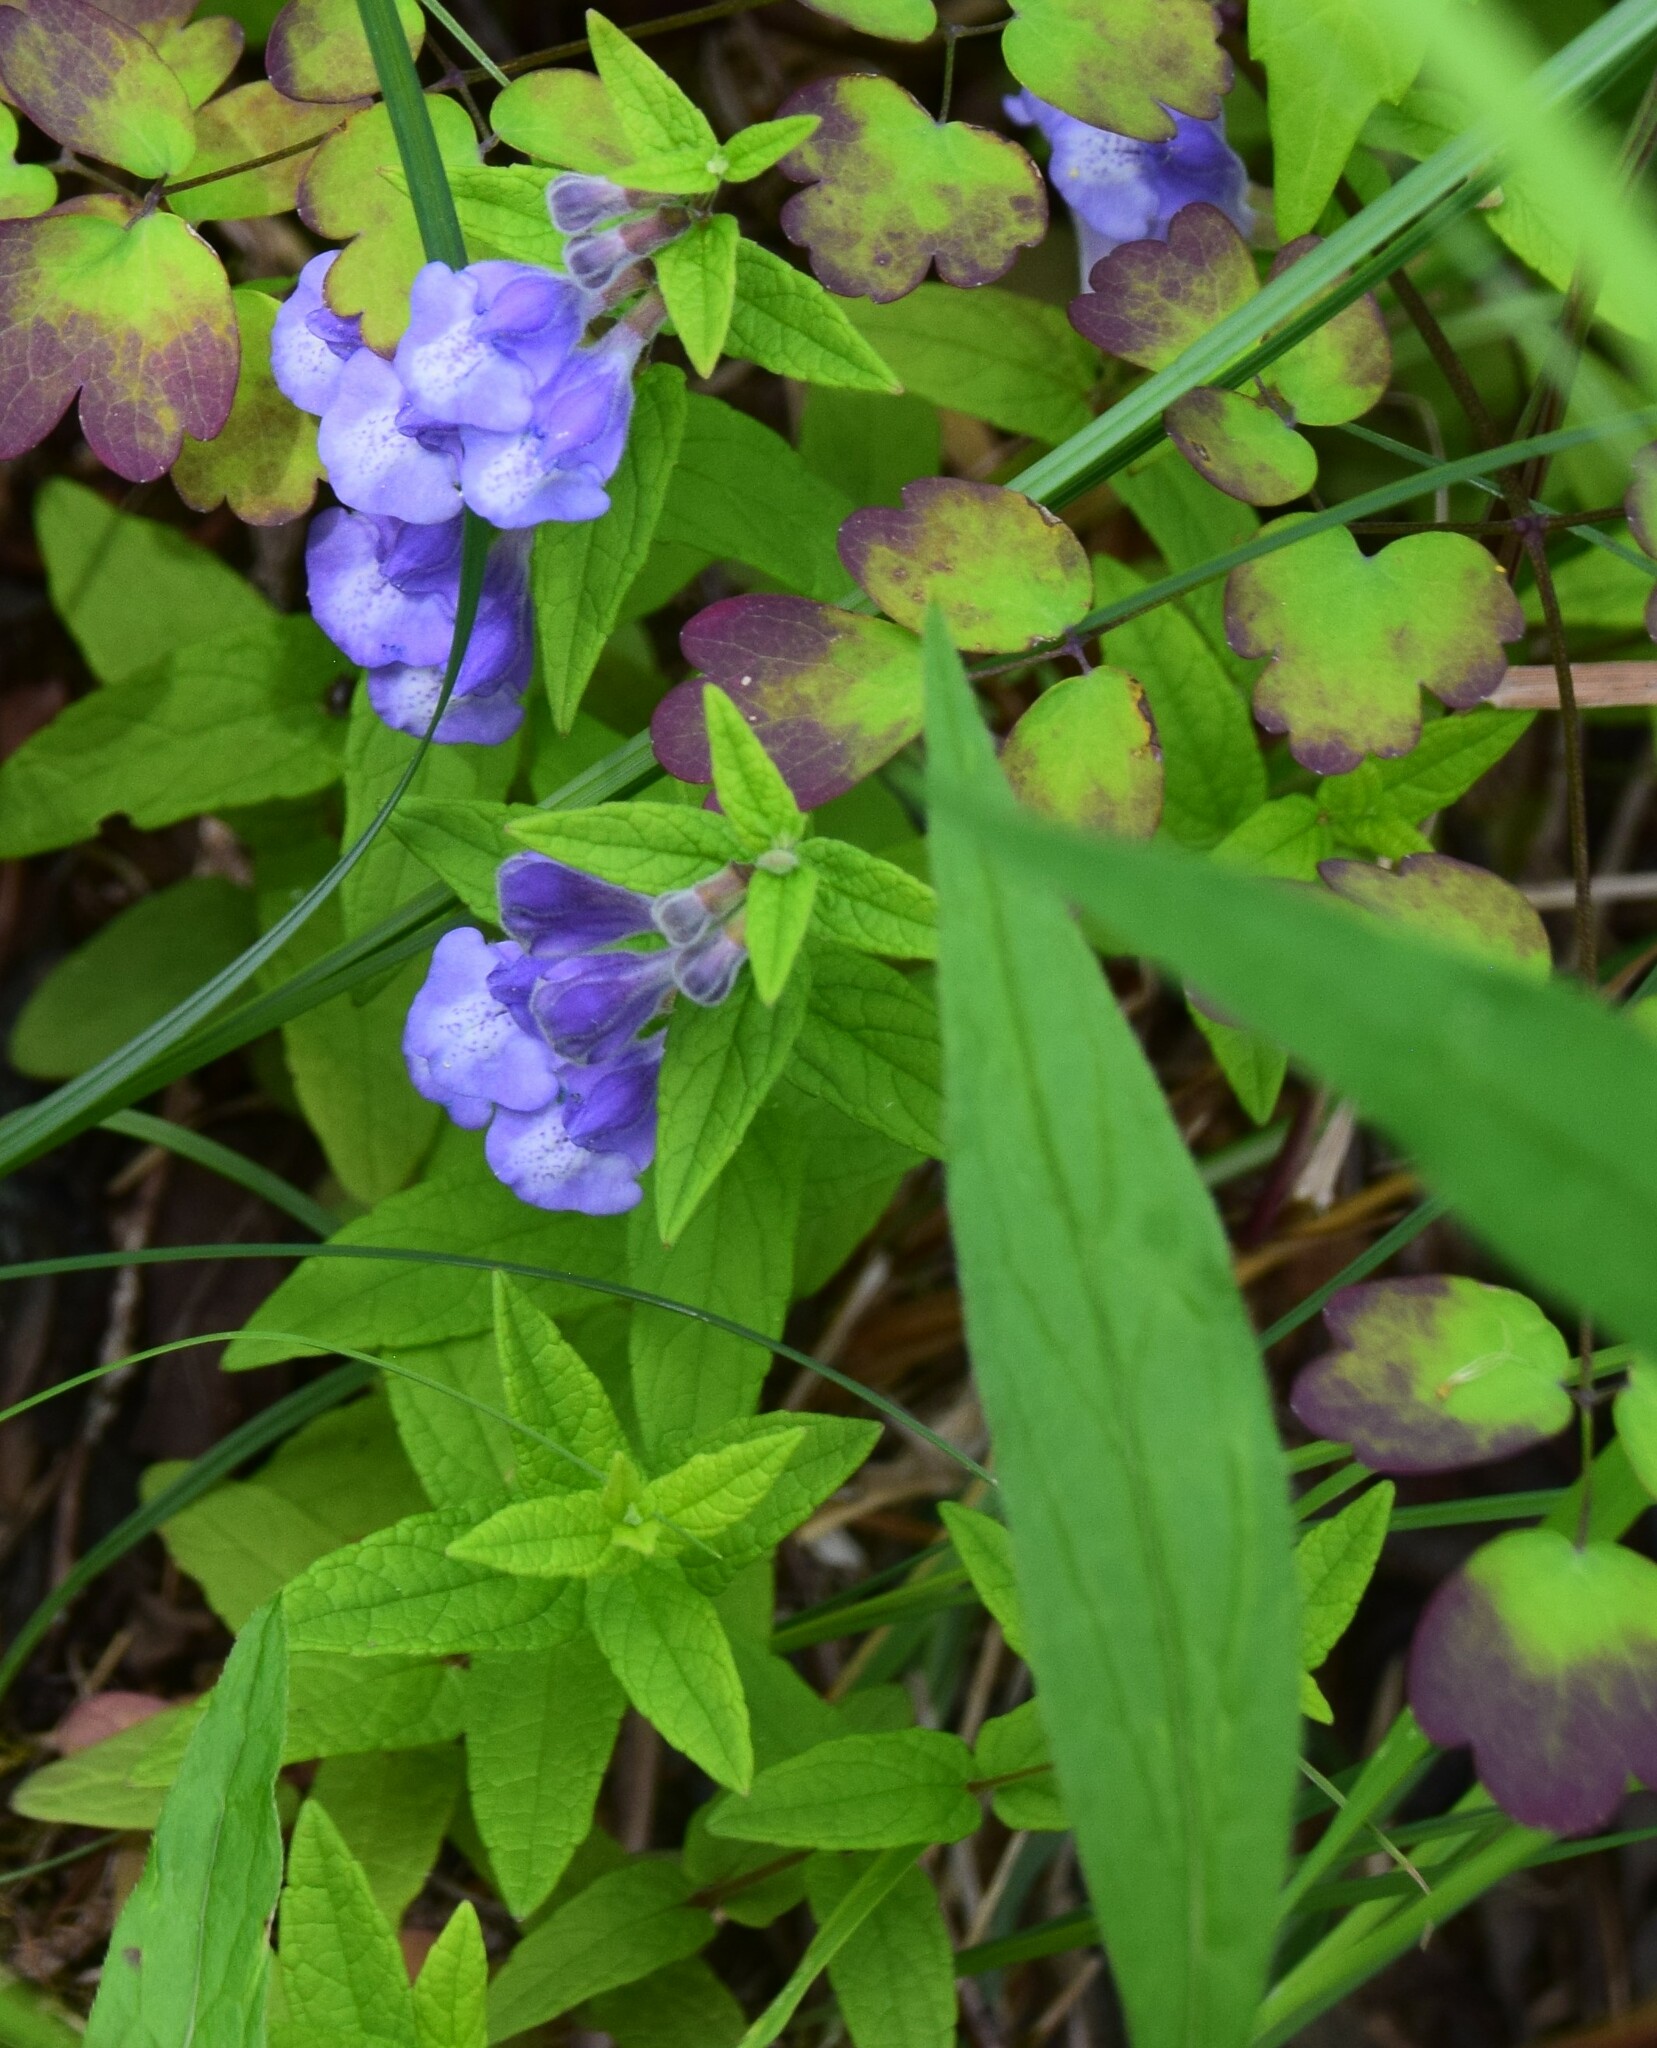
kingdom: Plantae
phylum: Tracheophyta
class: Magnoliopsida
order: Lamiales
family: Lamiaceae
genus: Scutellaria
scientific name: Scutellaria galericulata
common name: Skullcap
